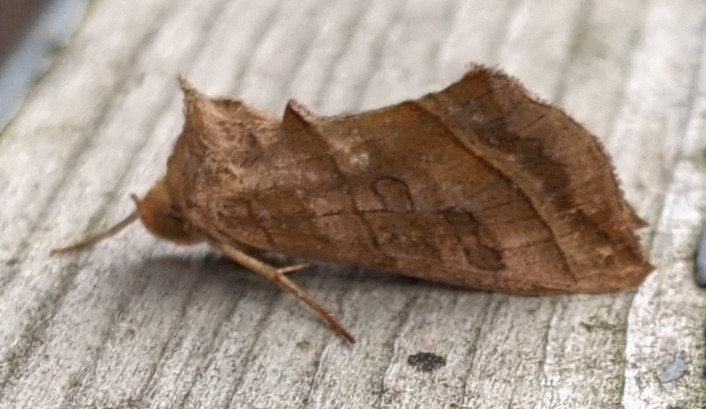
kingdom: Animalia
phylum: Arthropoda
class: Insecta
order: Lepidoptera
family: Noctuidae
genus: Diachrysia
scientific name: Diachrysia aereoides
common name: Dark-spotted looper moth
